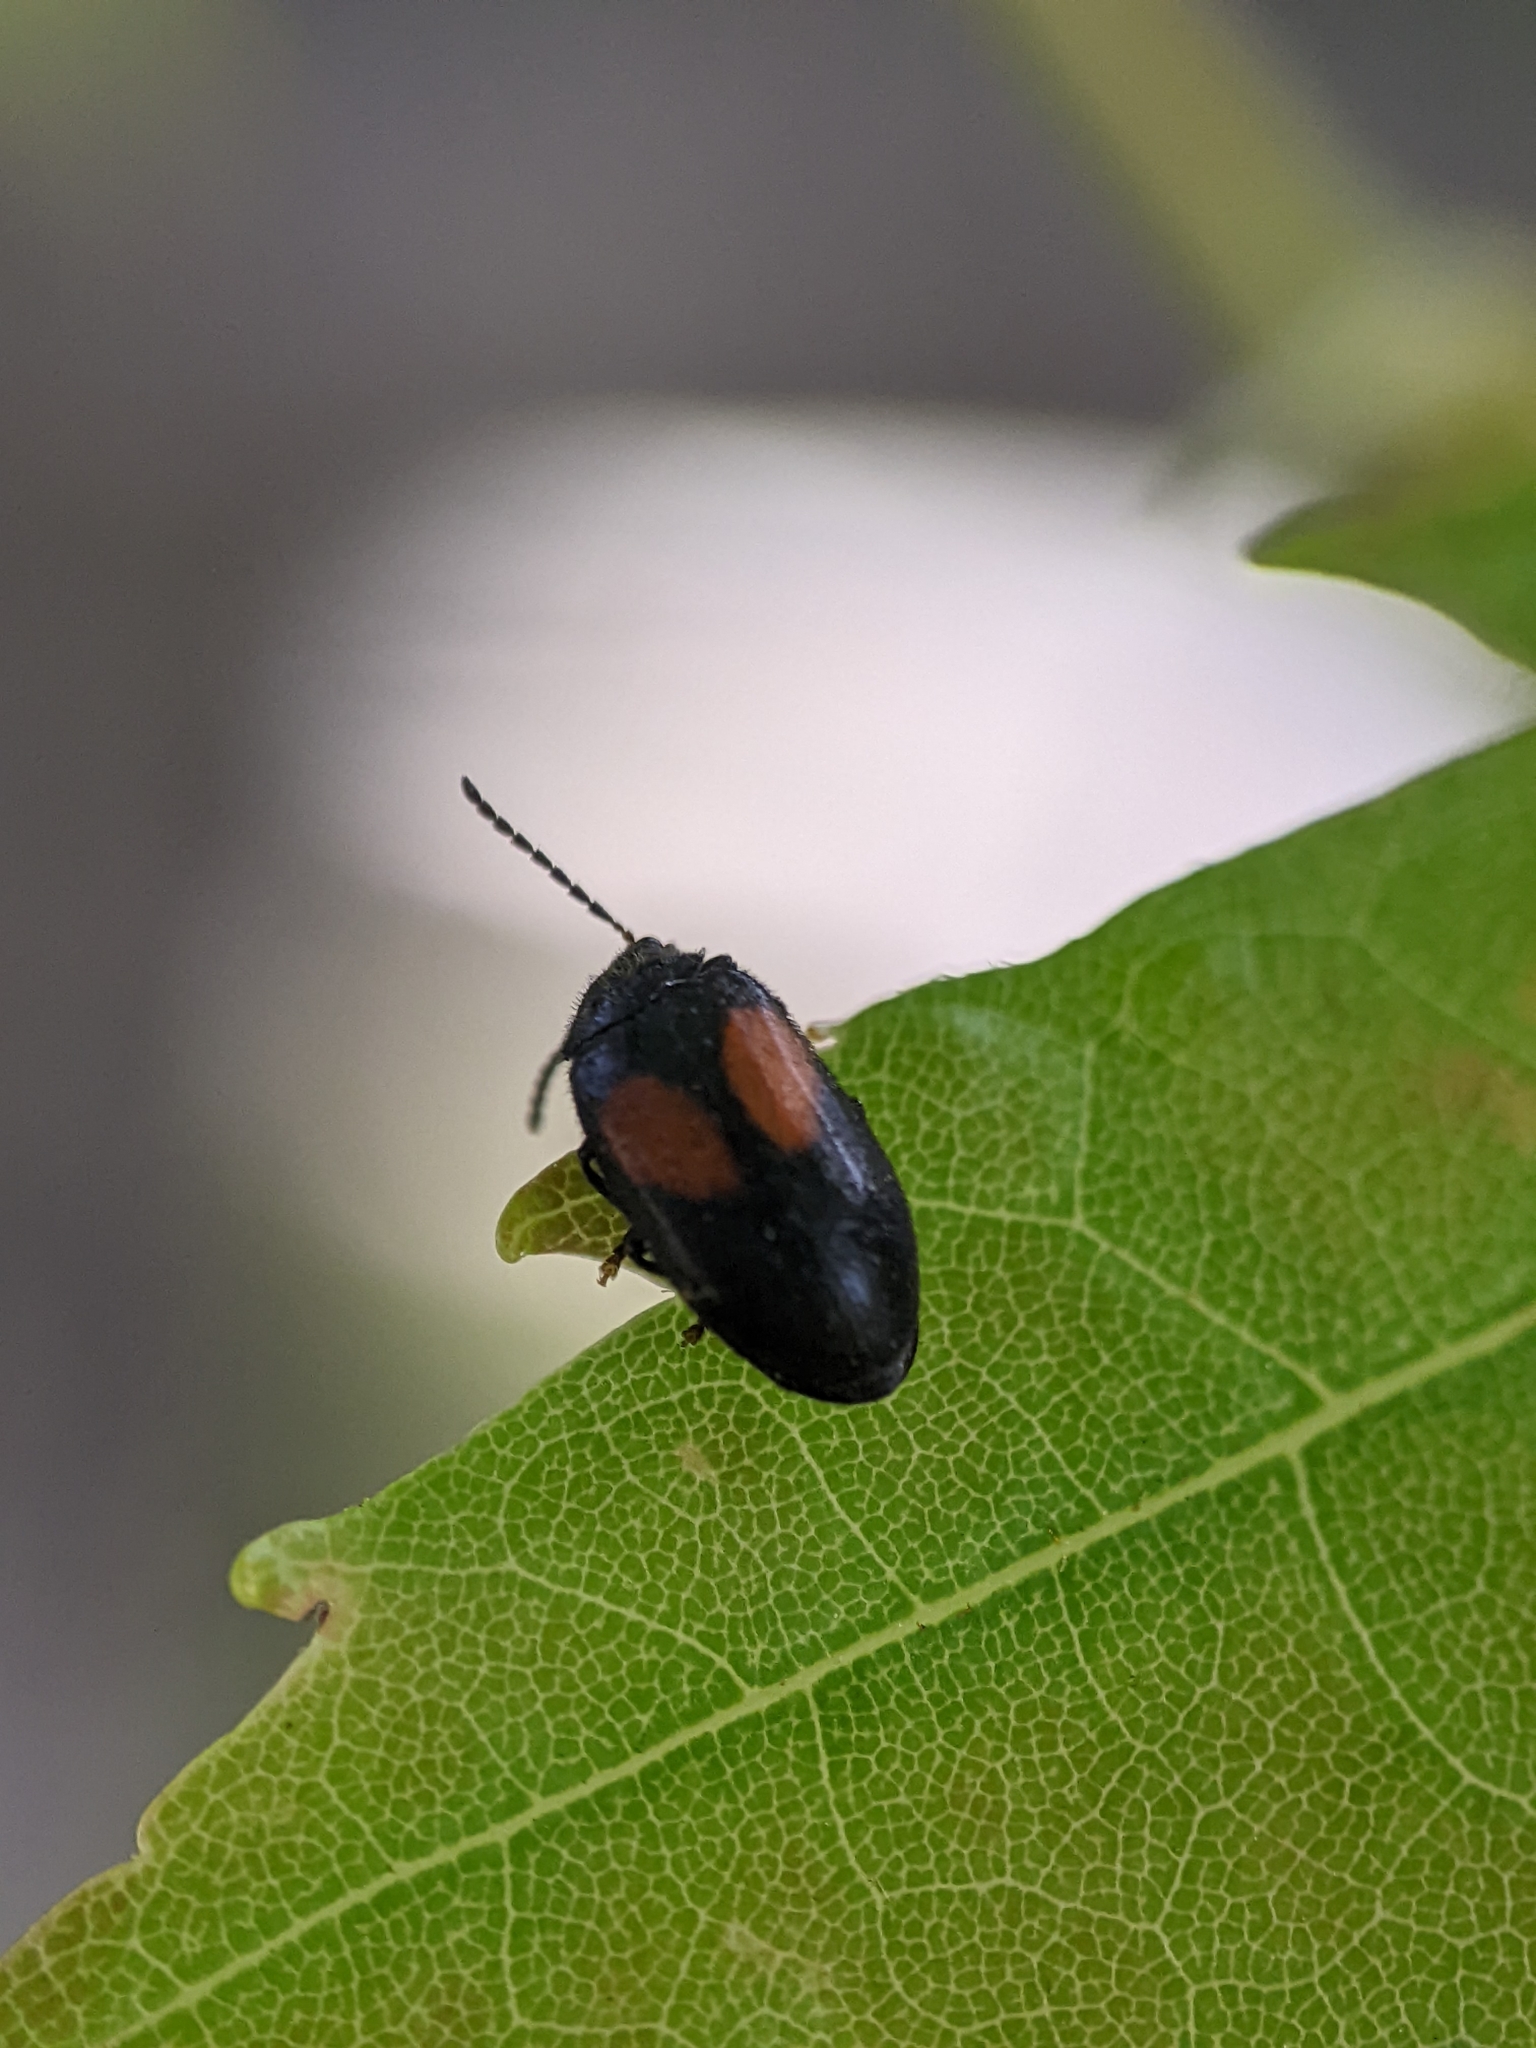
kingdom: Animalia
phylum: Arthropoda
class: Insecta
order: Coleoptera
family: Scirtidae
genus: Cyphon
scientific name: Cyphon concinnus
